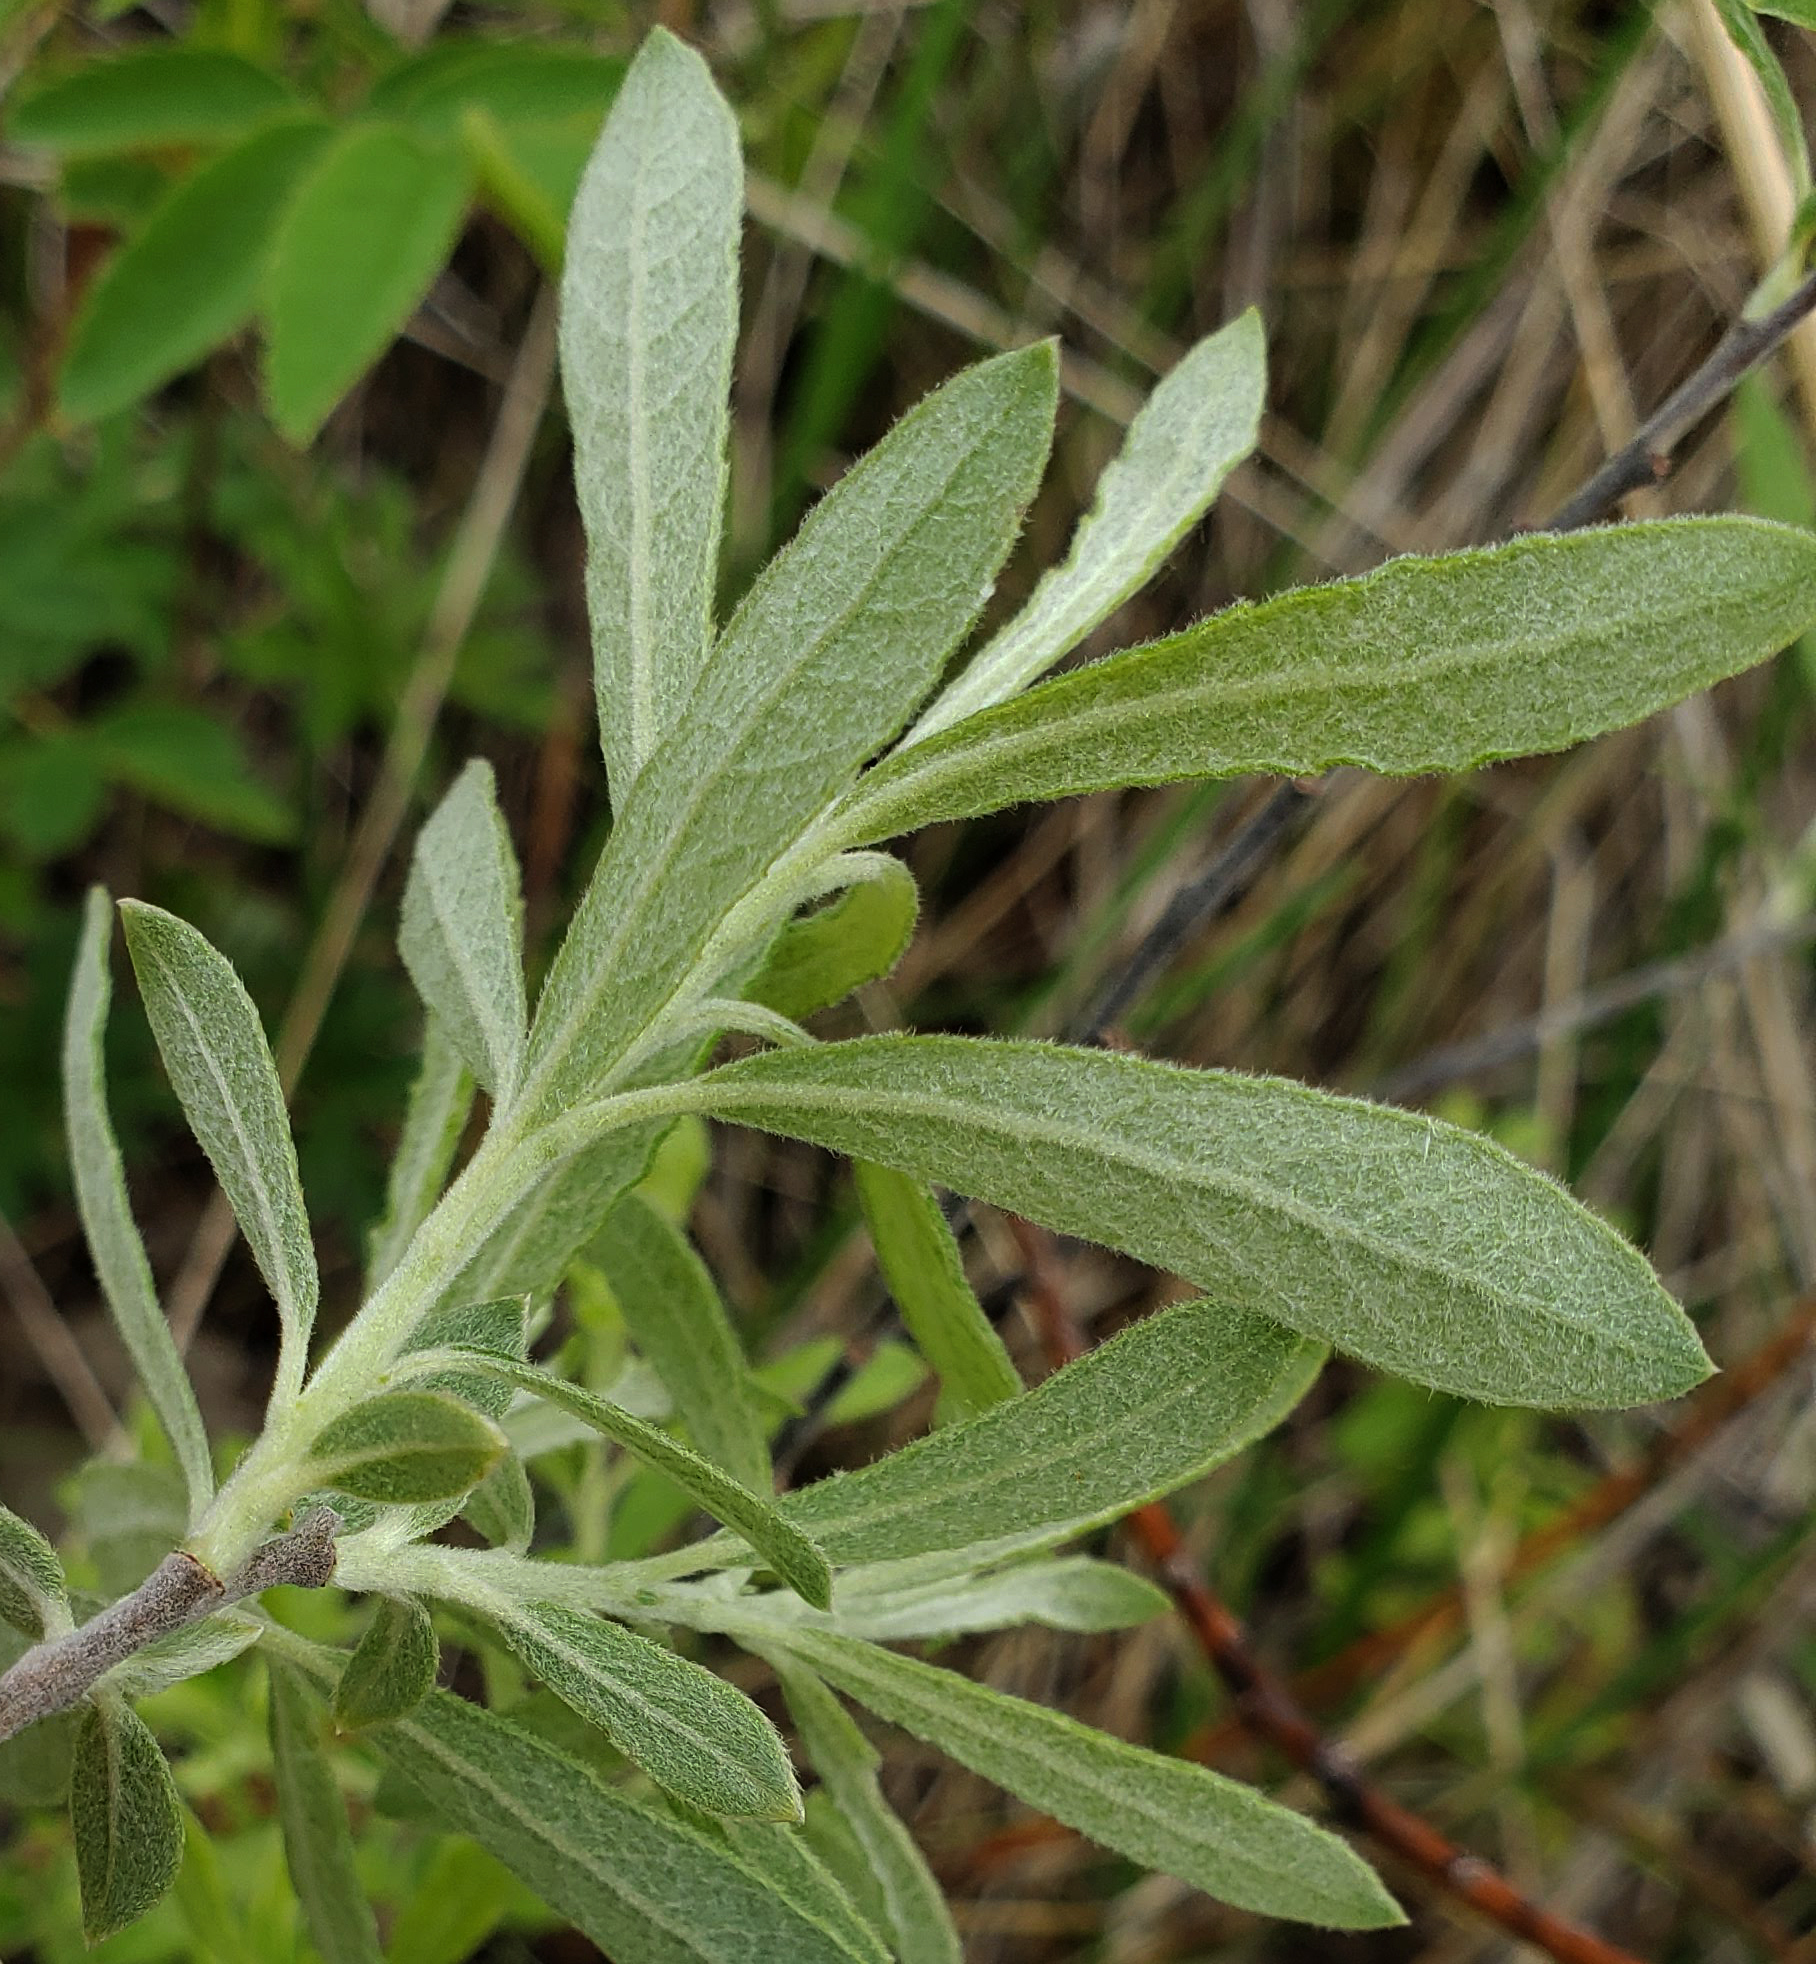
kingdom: Plantae
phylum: Tracheophyta
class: Magnoliopsida
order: Malpighiales
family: Salicaceae
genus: Salix
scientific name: Salix humilis
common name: Prairie willow
